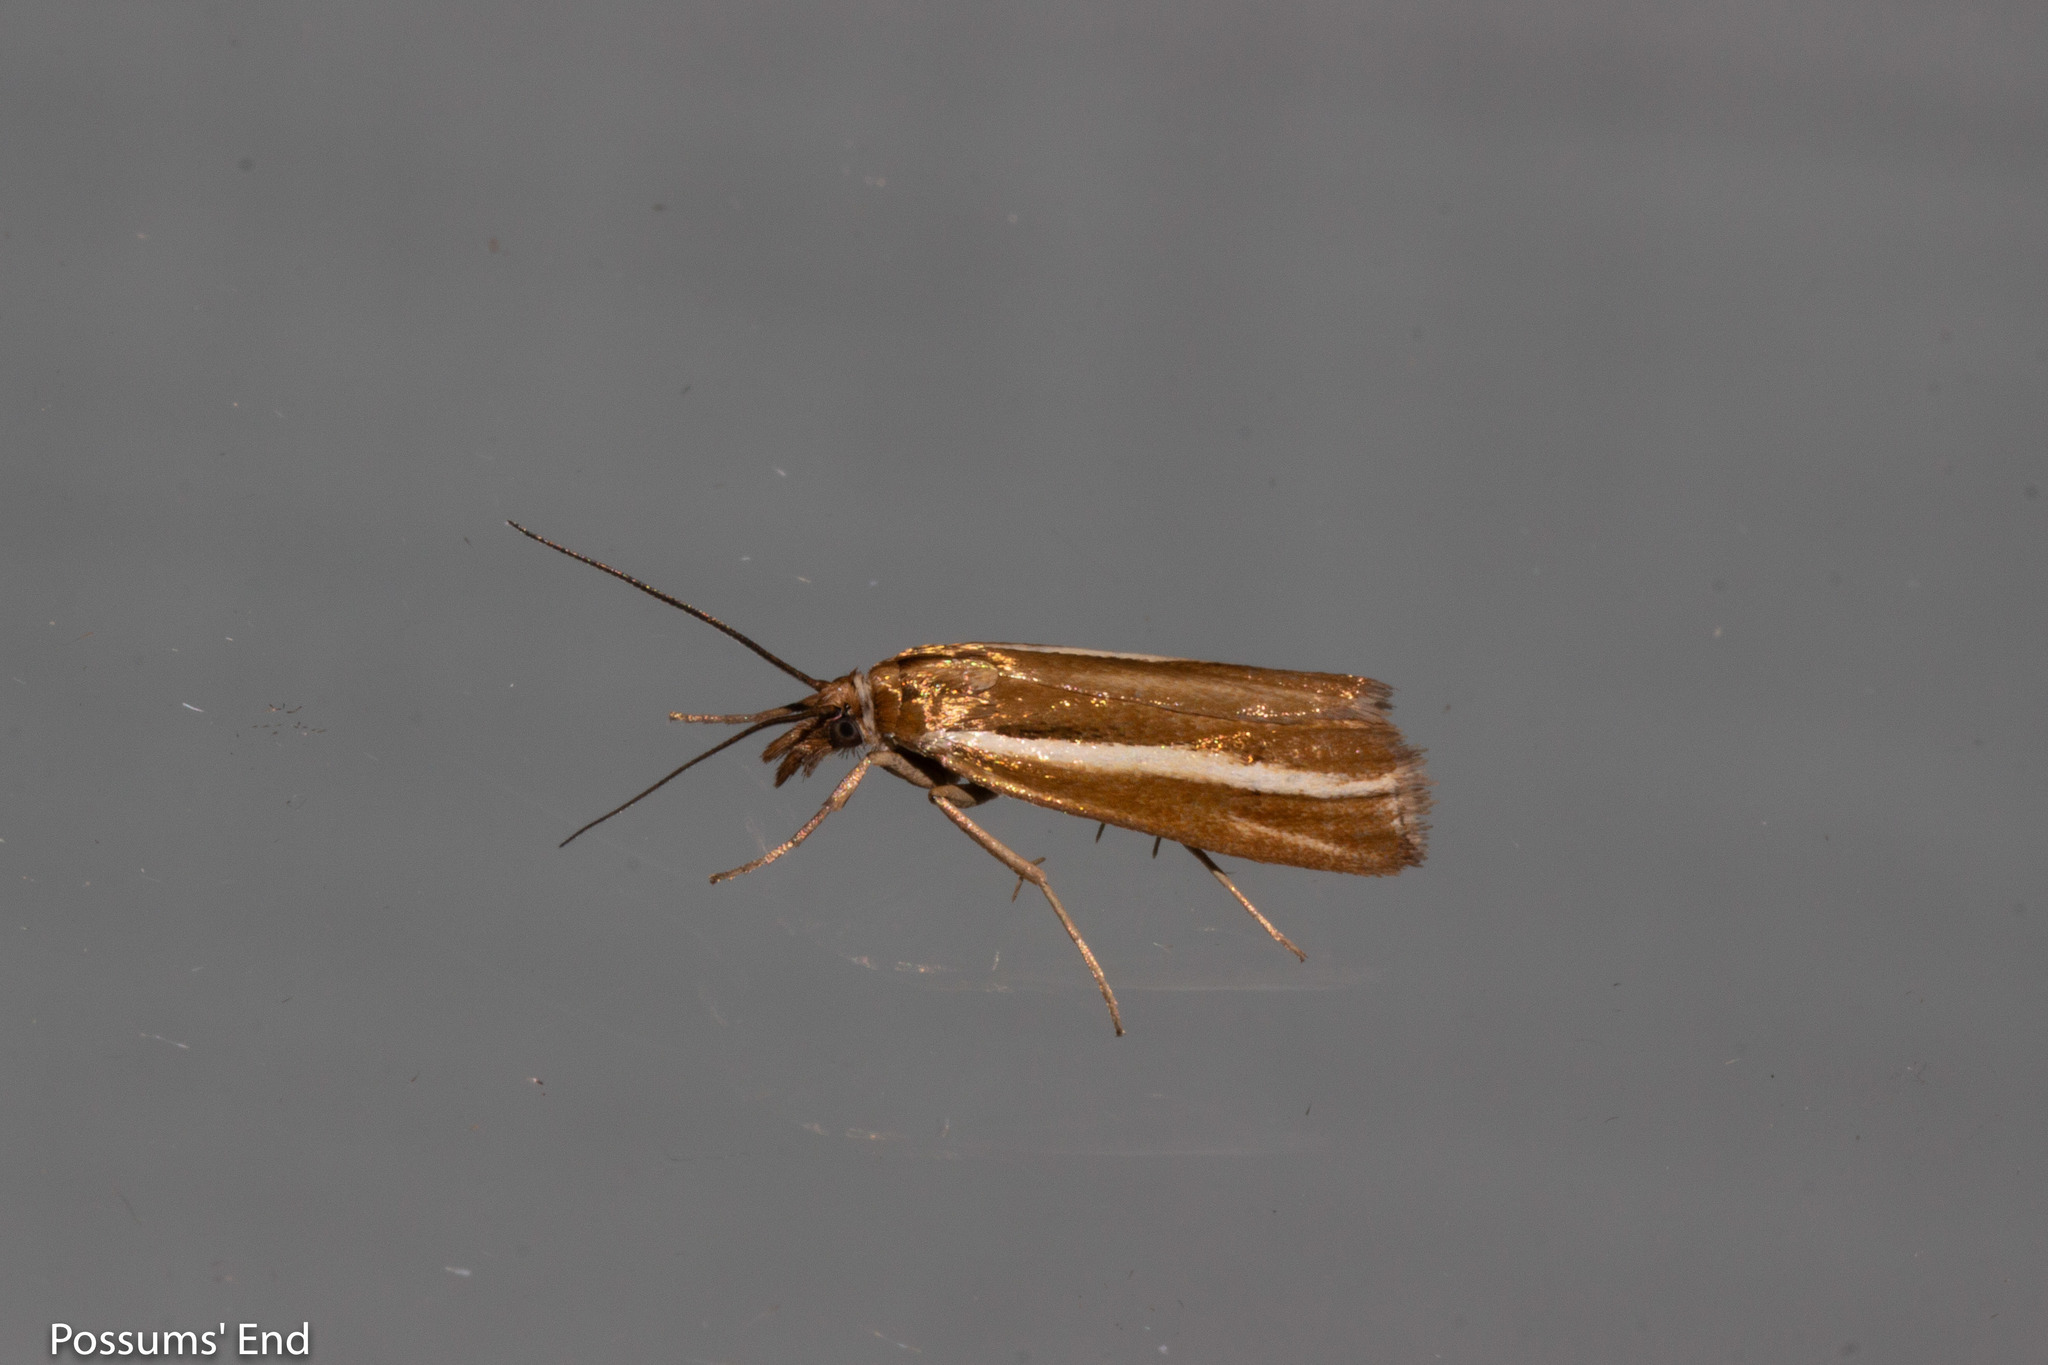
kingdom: Animalia
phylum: Arthropoda
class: Insecta
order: Lepidoptera
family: Crambidae
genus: Orocrambus
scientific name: Orocrambus aethonellus
